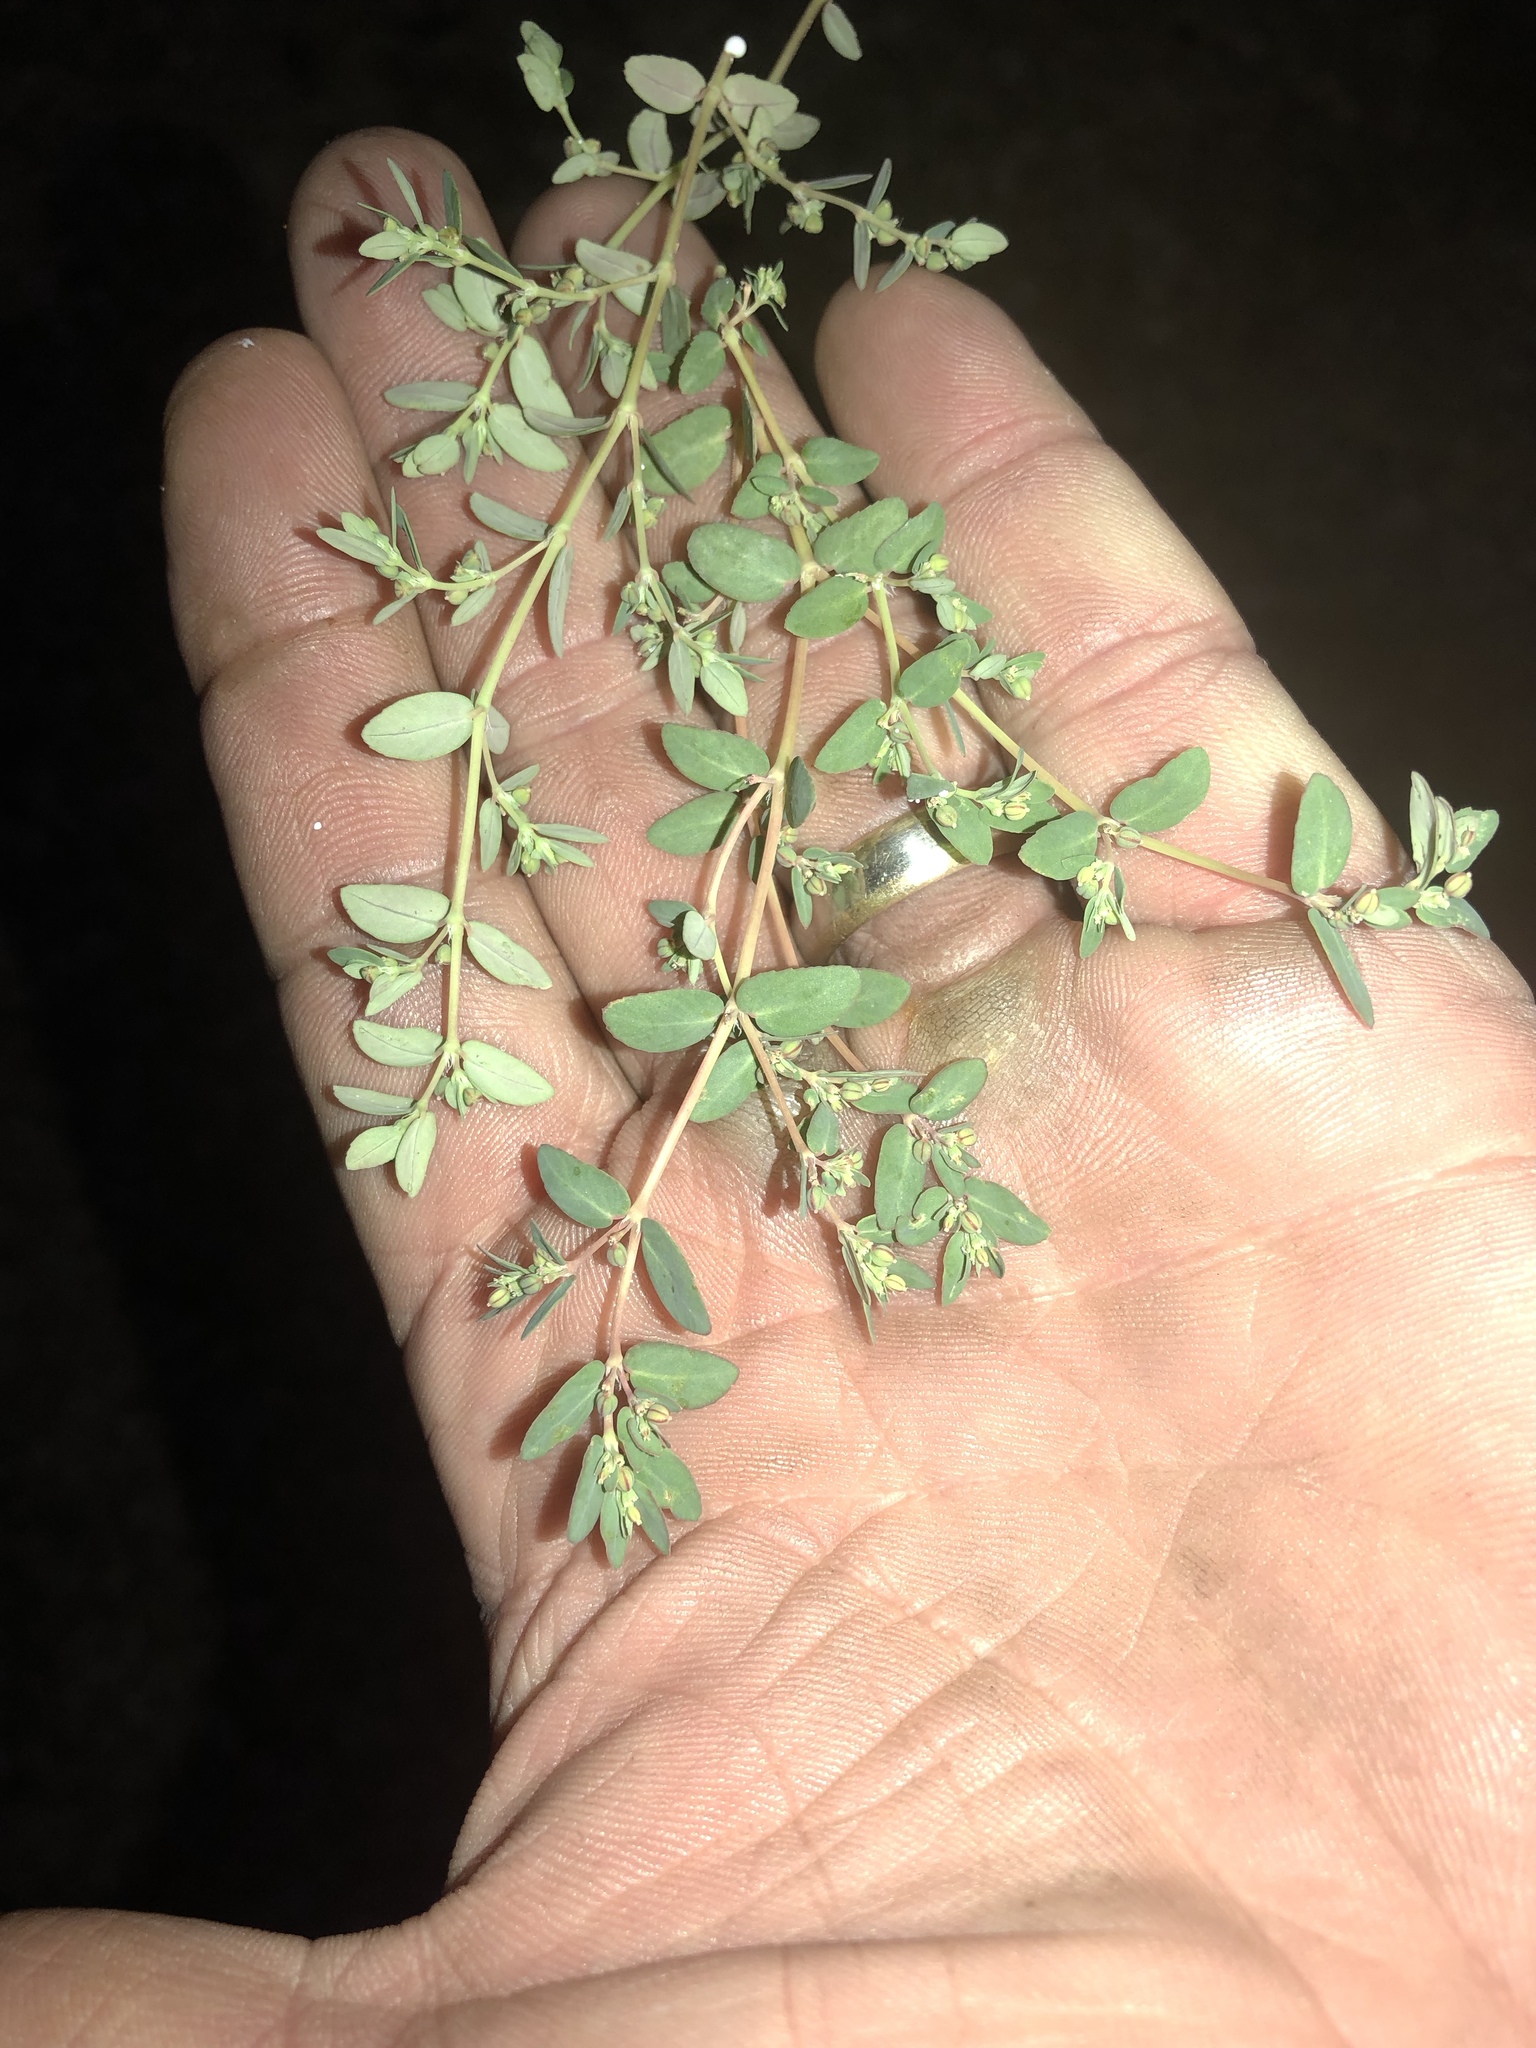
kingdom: Plantae
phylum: Tracheophyta
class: Magnoliopsida
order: Malpighiales
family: Euphorbiaceae
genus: Euphorbia
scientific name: Euphorbia abramsiana
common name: Abram's spurge
